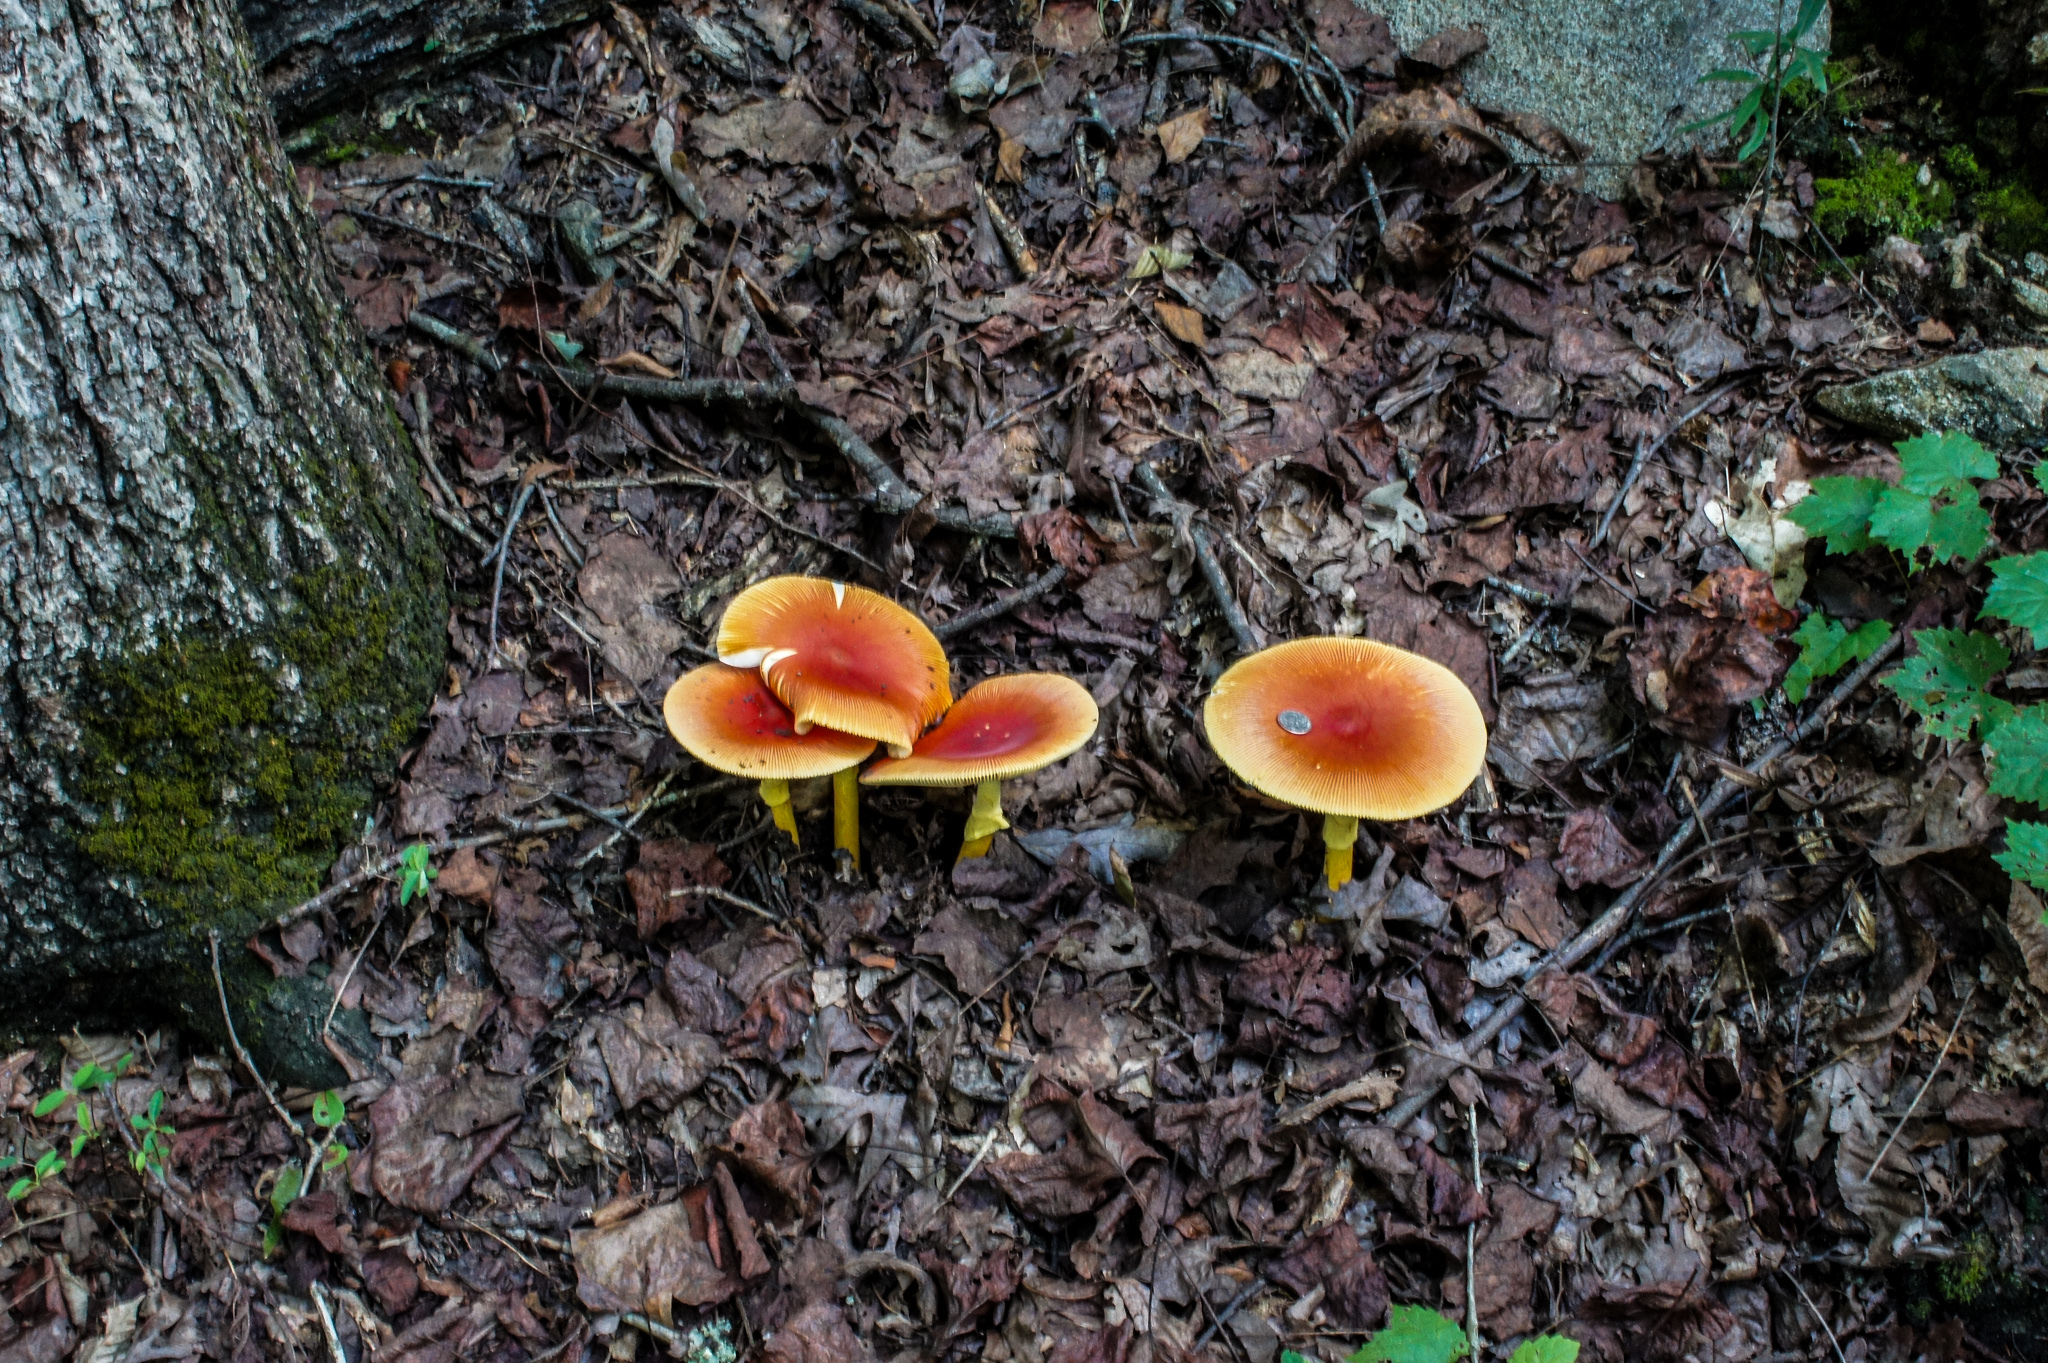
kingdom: Fungi
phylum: Basidiomycota
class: Agaricomycetes
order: Agaricales
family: Amanitaceae
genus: Amanita
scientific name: Amanita jacksonii
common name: Jackson's slender caesar
